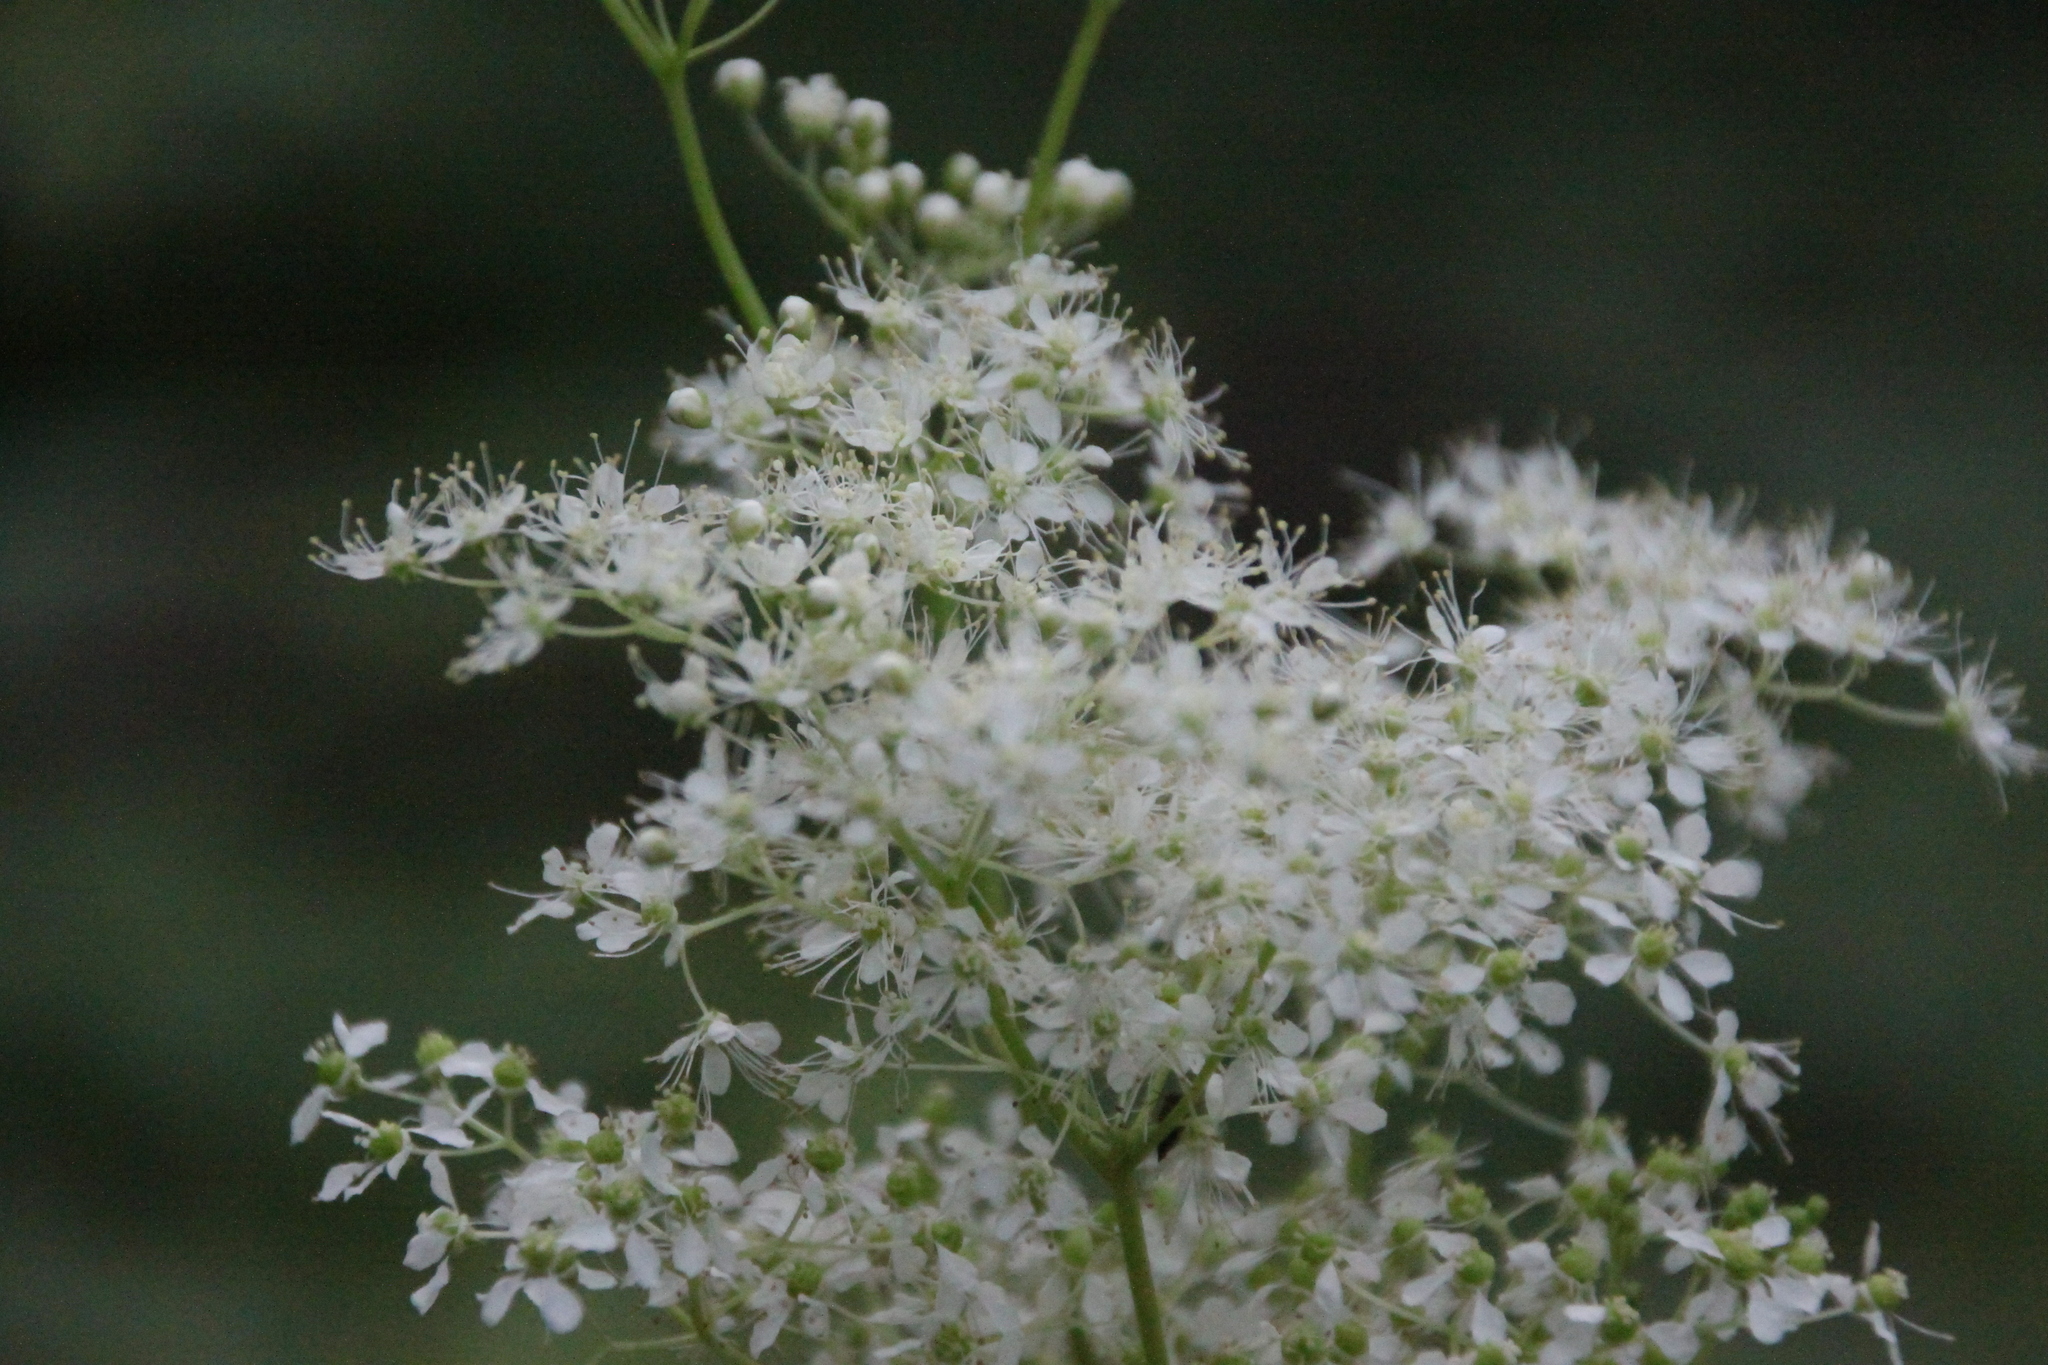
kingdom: Plantae
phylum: Tracheophyta
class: Magnoliopsida
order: Rosales
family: Rosaceae
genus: Filipendula
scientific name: Filipendula ulmaria
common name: Meadowsweet
